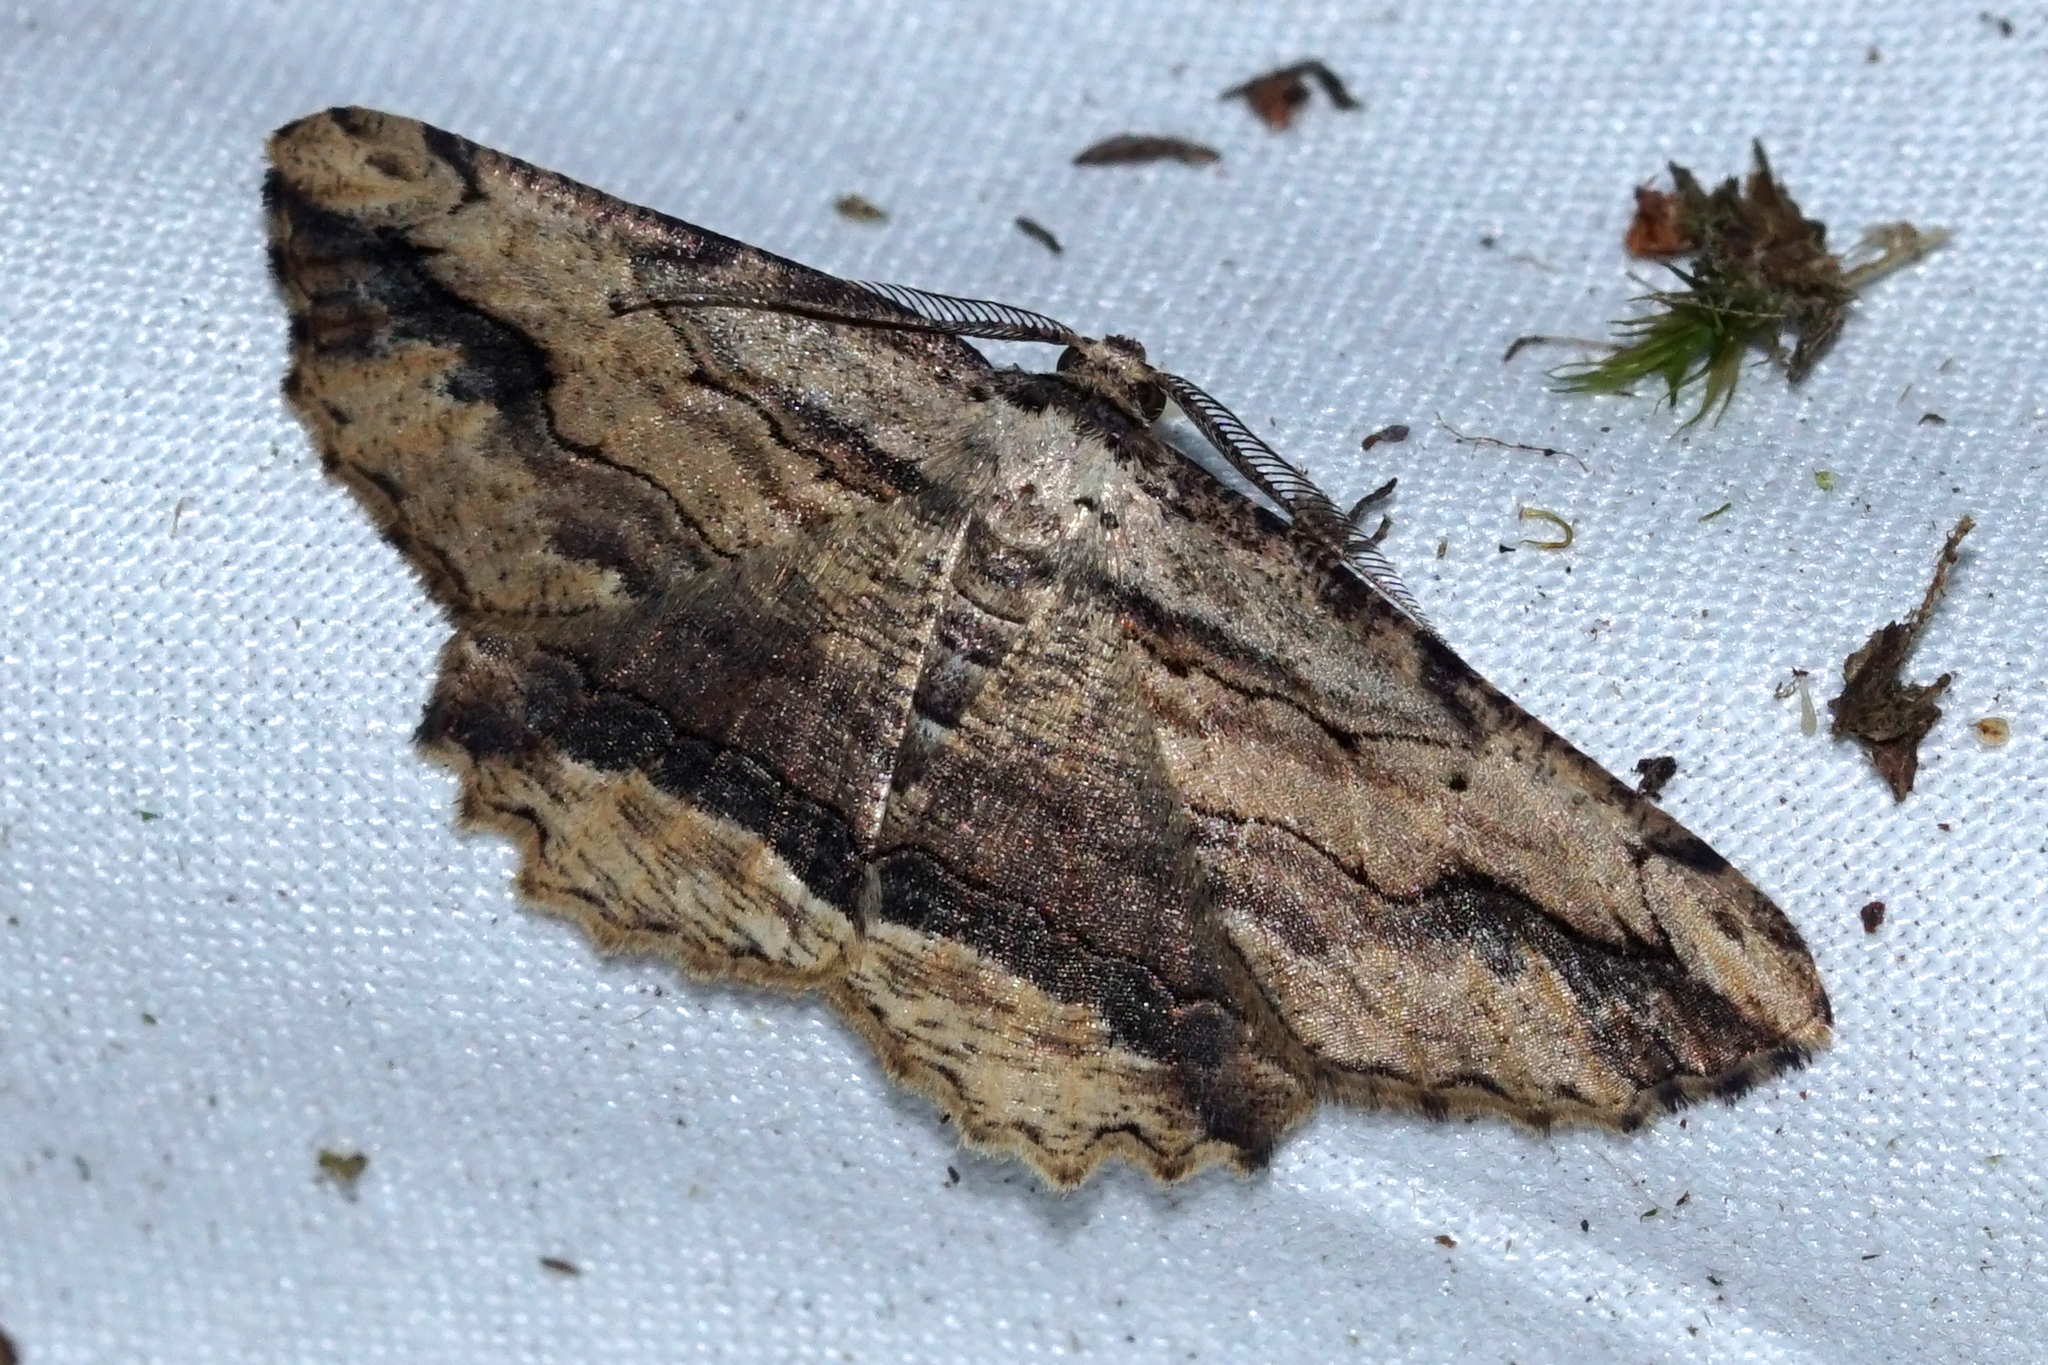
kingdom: Animalia
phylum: Arthropoda
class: Insecta
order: Lepidoptera
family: Geometridae
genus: Menophra
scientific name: Menophra abruptaria
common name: Waved umber
